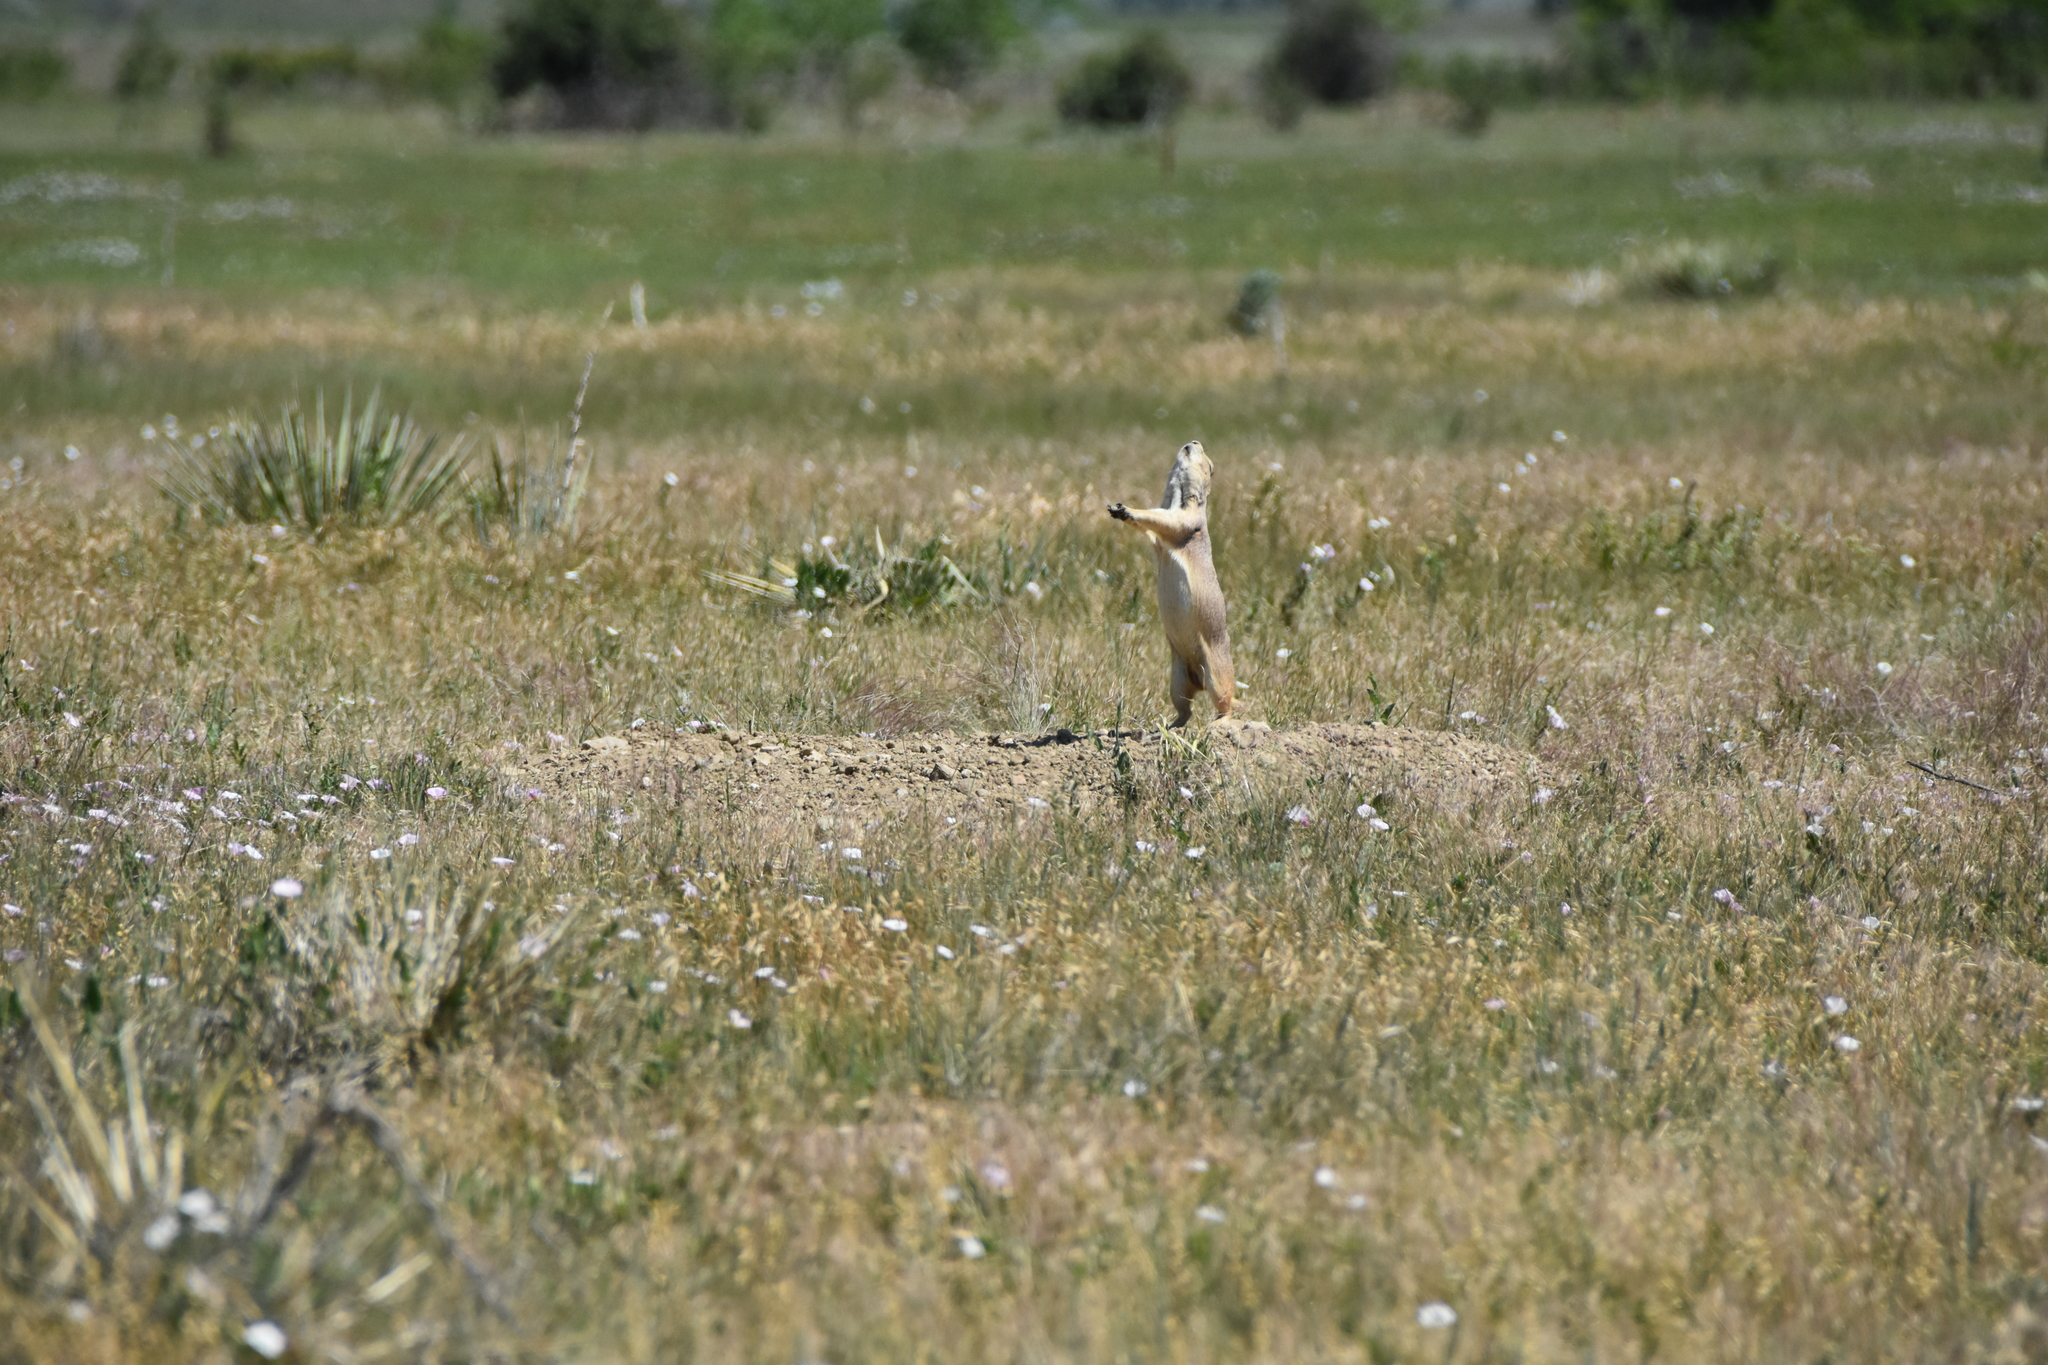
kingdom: Animalia
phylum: Chordata
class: Mammalia
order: Rodentia
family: Sciuridae
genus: Cynomys
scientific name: Cynomys ludovicianus
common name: Black-tailed prairie dog
